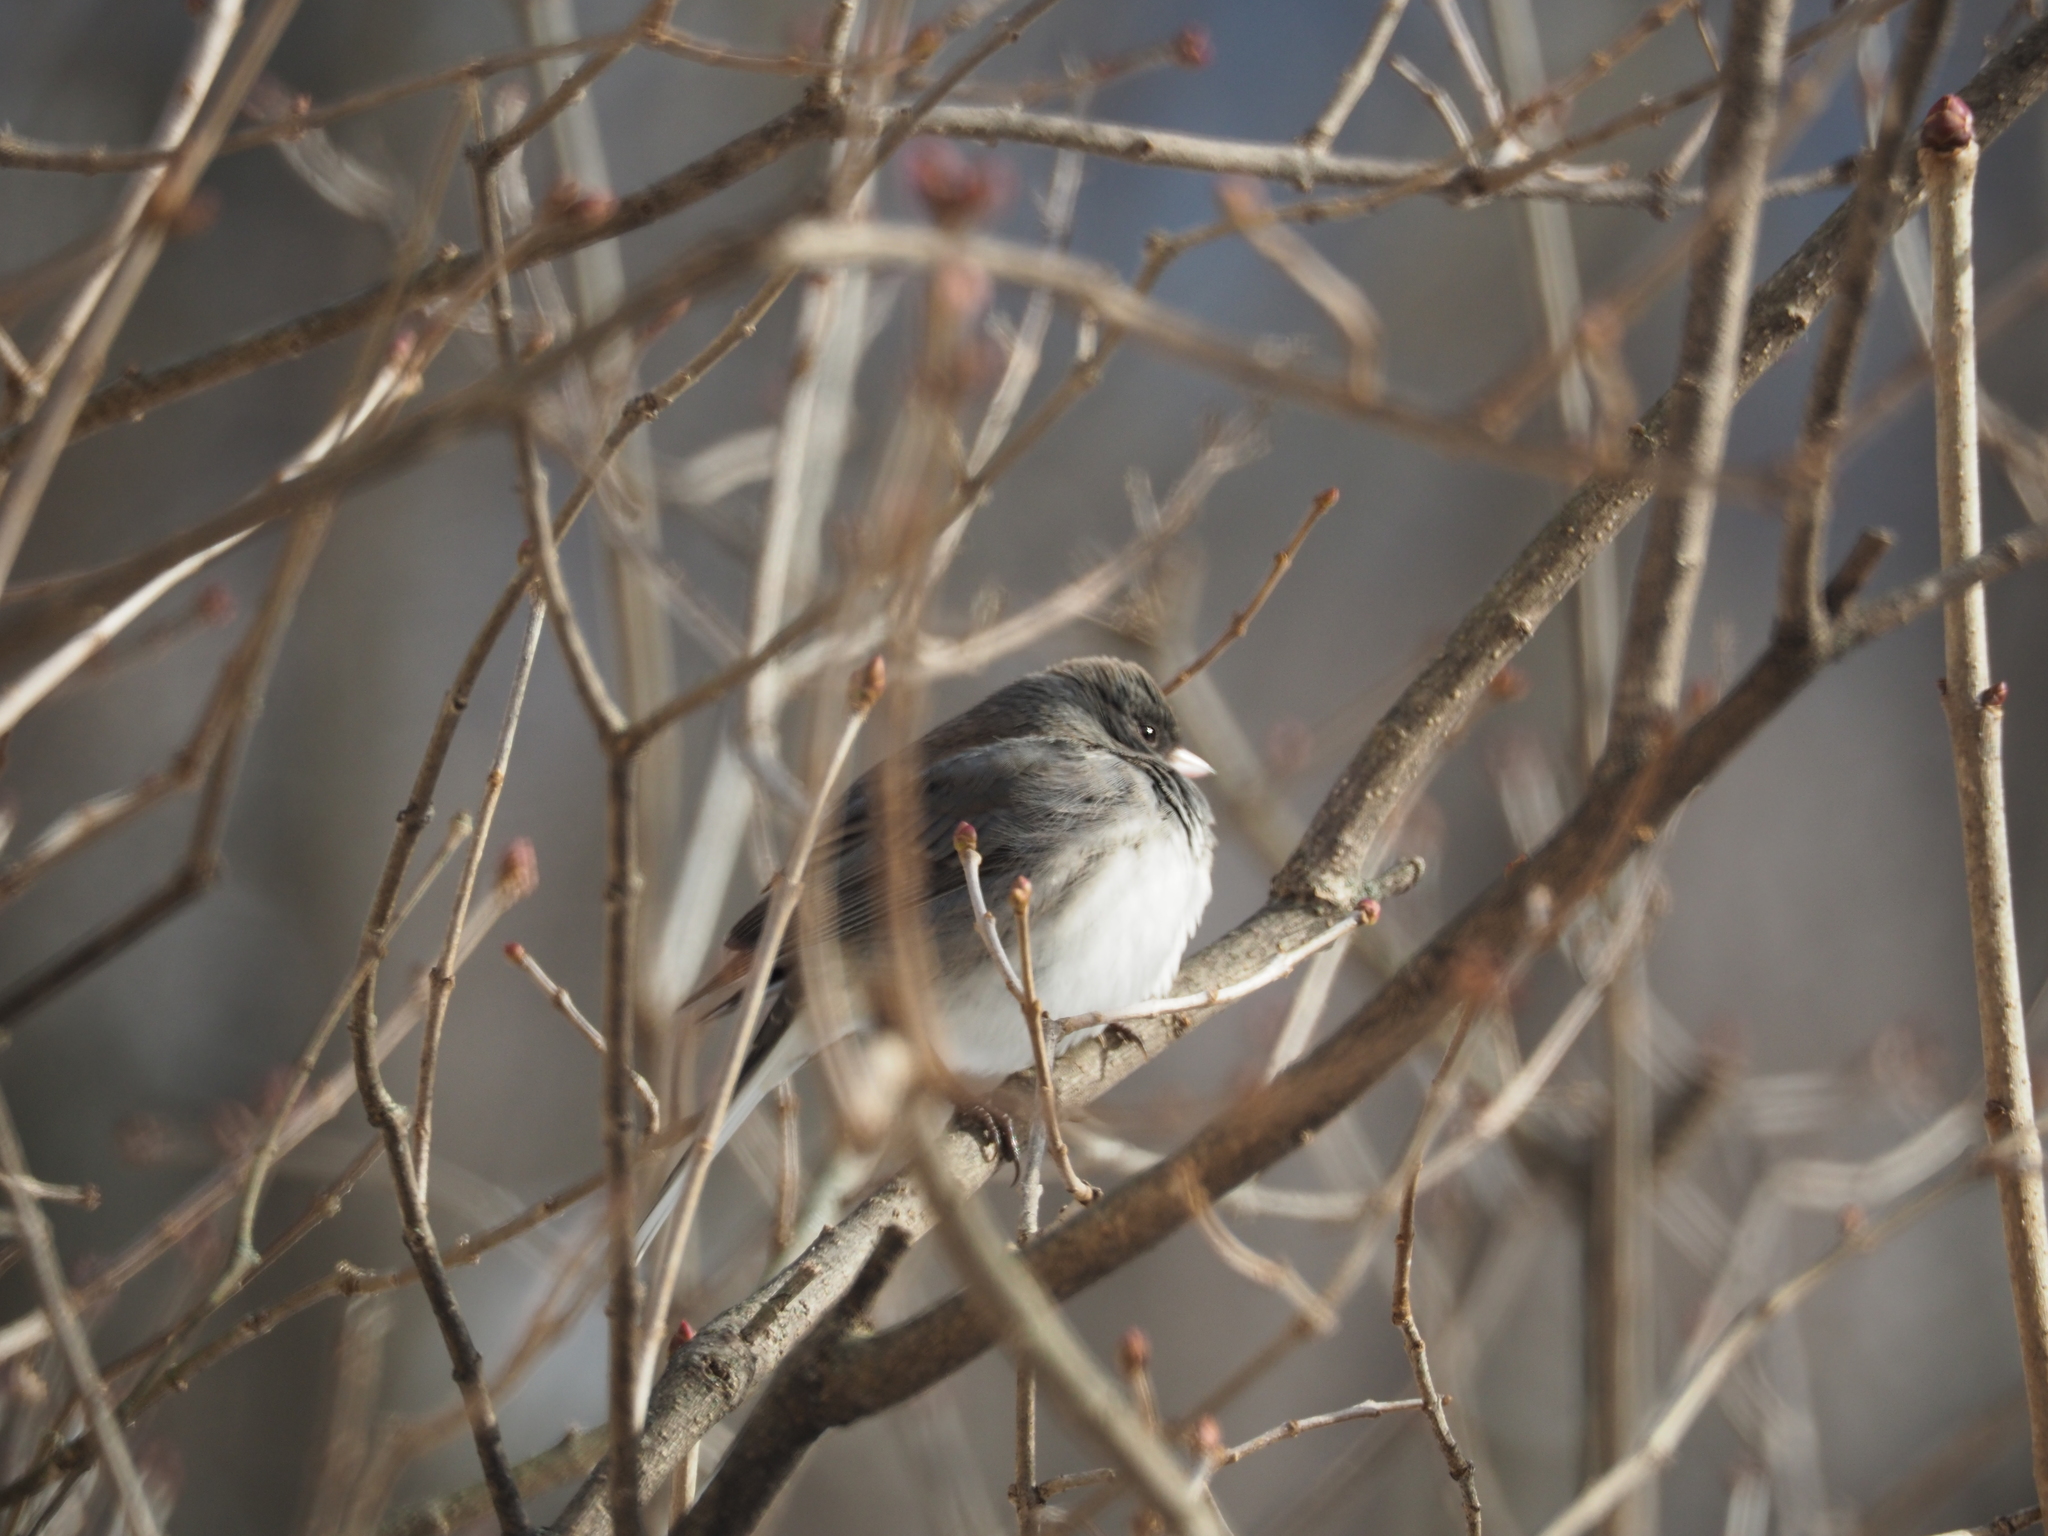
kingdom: Animalia
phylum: Chordata
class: Aves
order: Passeriformes
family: Passerellidae
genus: Junco
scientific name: Junco hyemalis
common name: Dark-eyed junco
